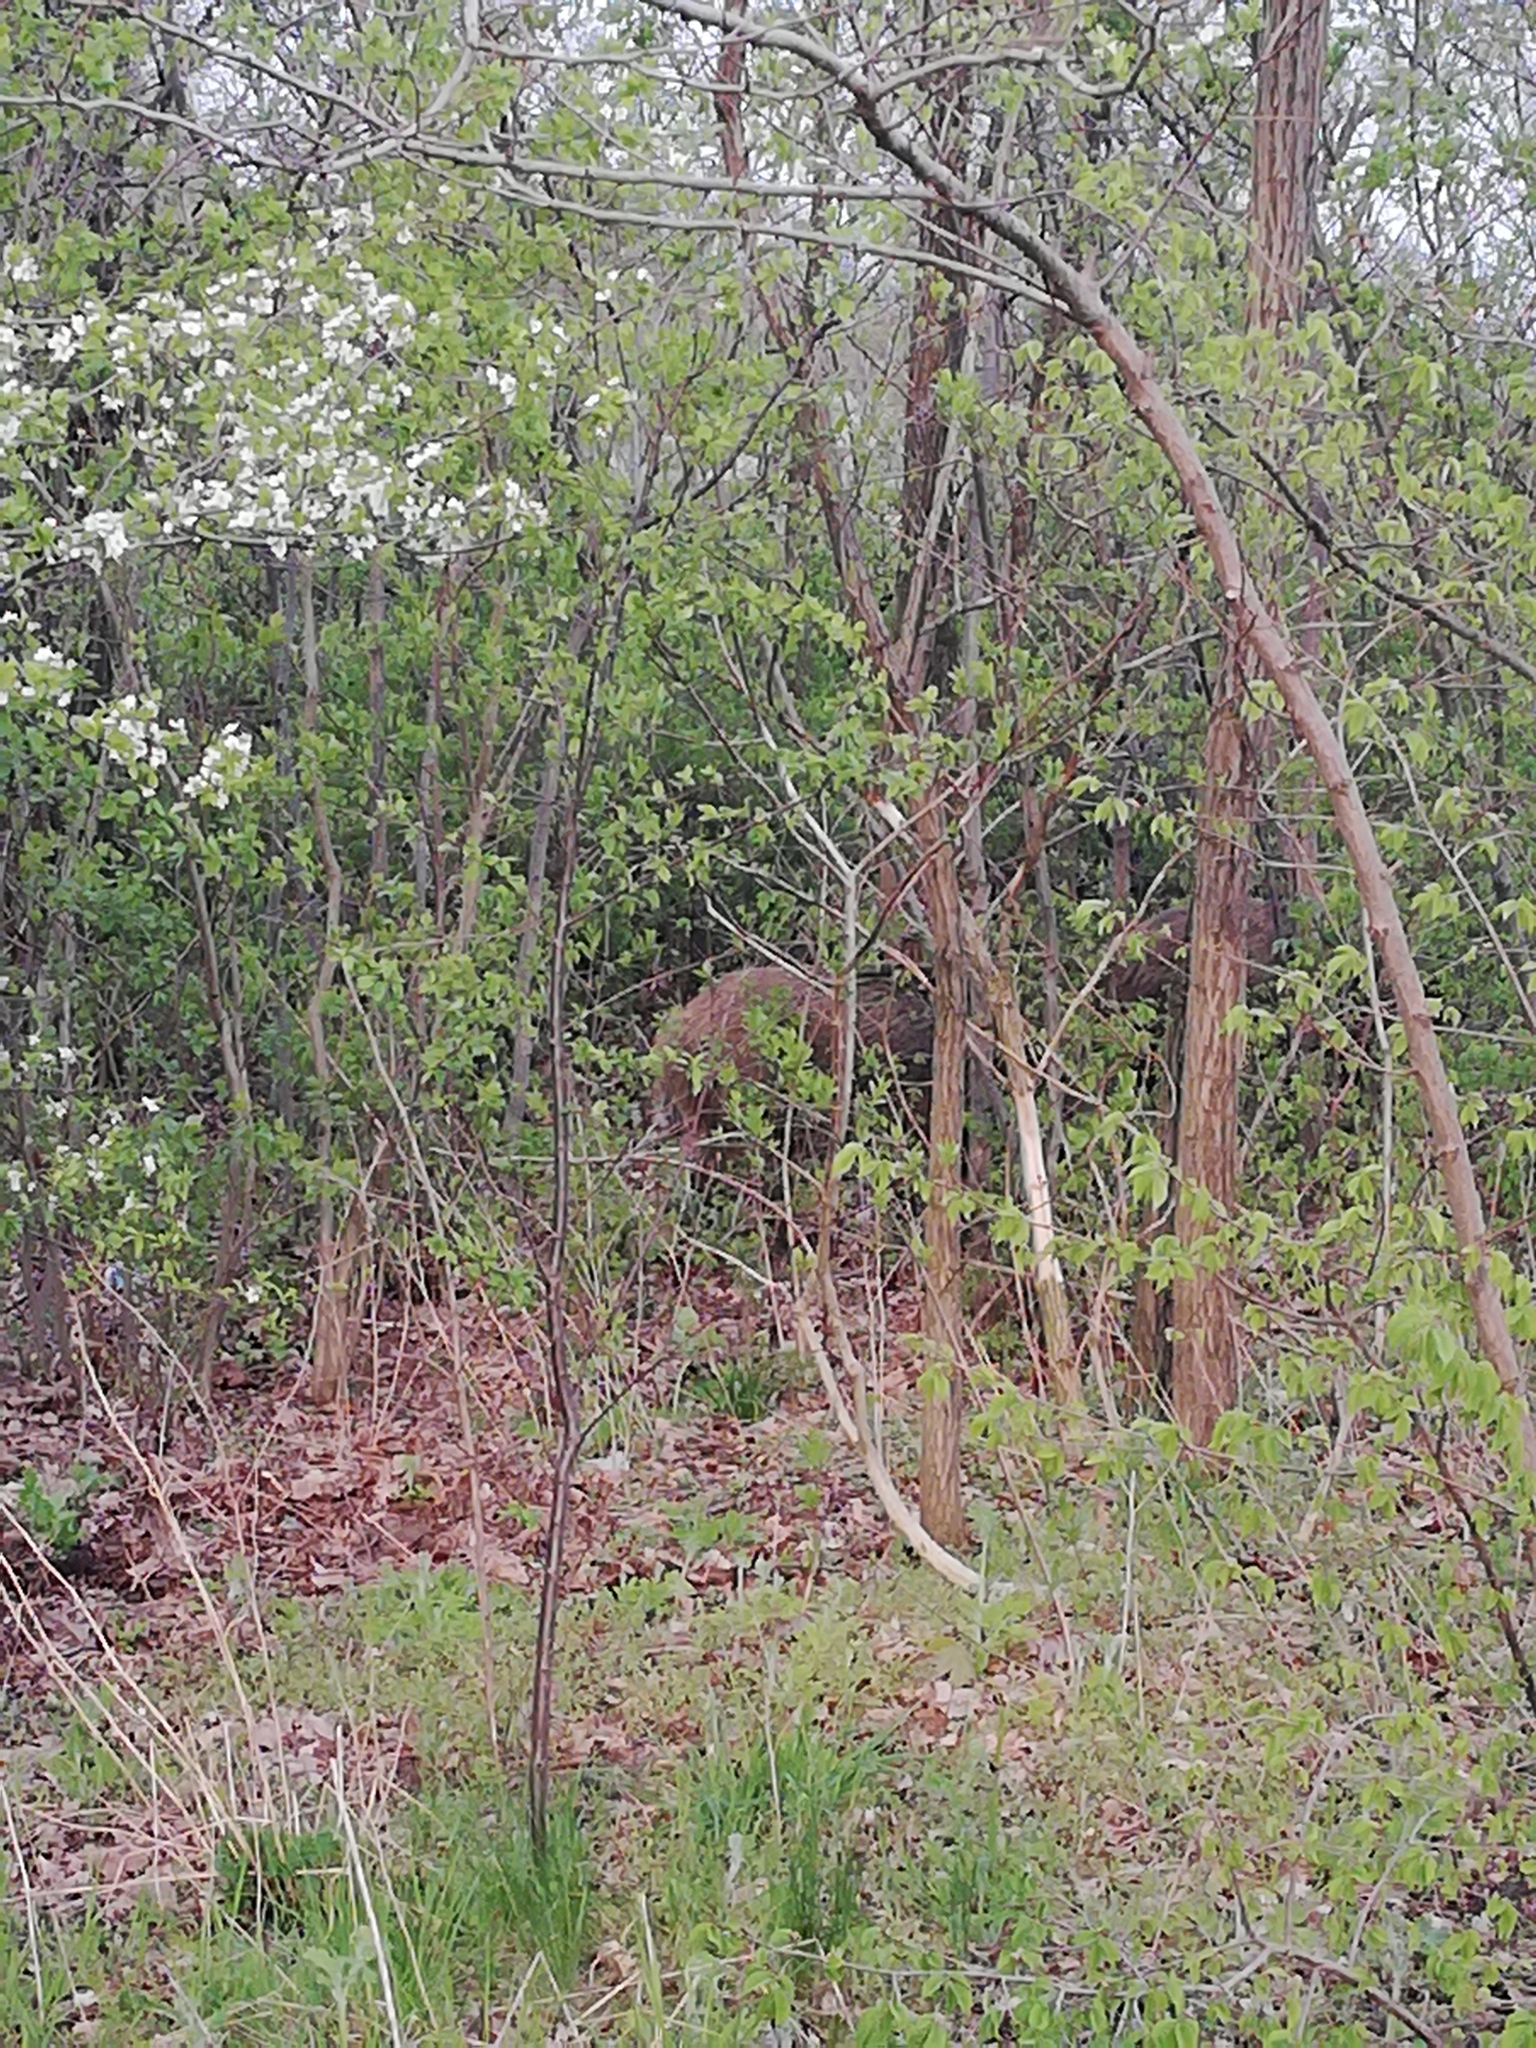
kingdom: Animalia
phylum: Chordata
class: Mammalia
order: Artiodactyla
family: Suidae
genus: Sus
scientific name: Sus scrofa
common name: Wild boar
